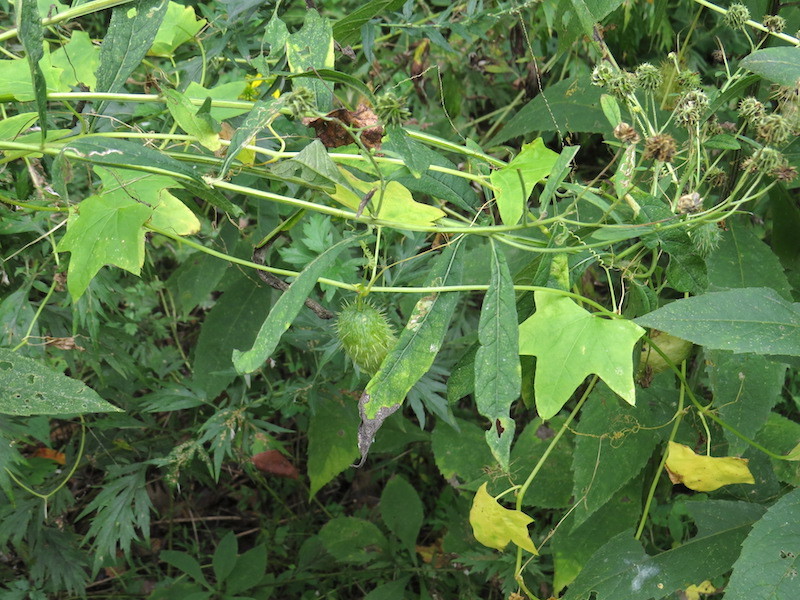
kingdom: Plantae
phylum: Tracheophyta
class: Magnoliopsida
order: Cucurbitales
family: Cucurbitaceae
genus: Echinocystis
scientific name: Echinocystis lobata
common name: Wild cucumber
